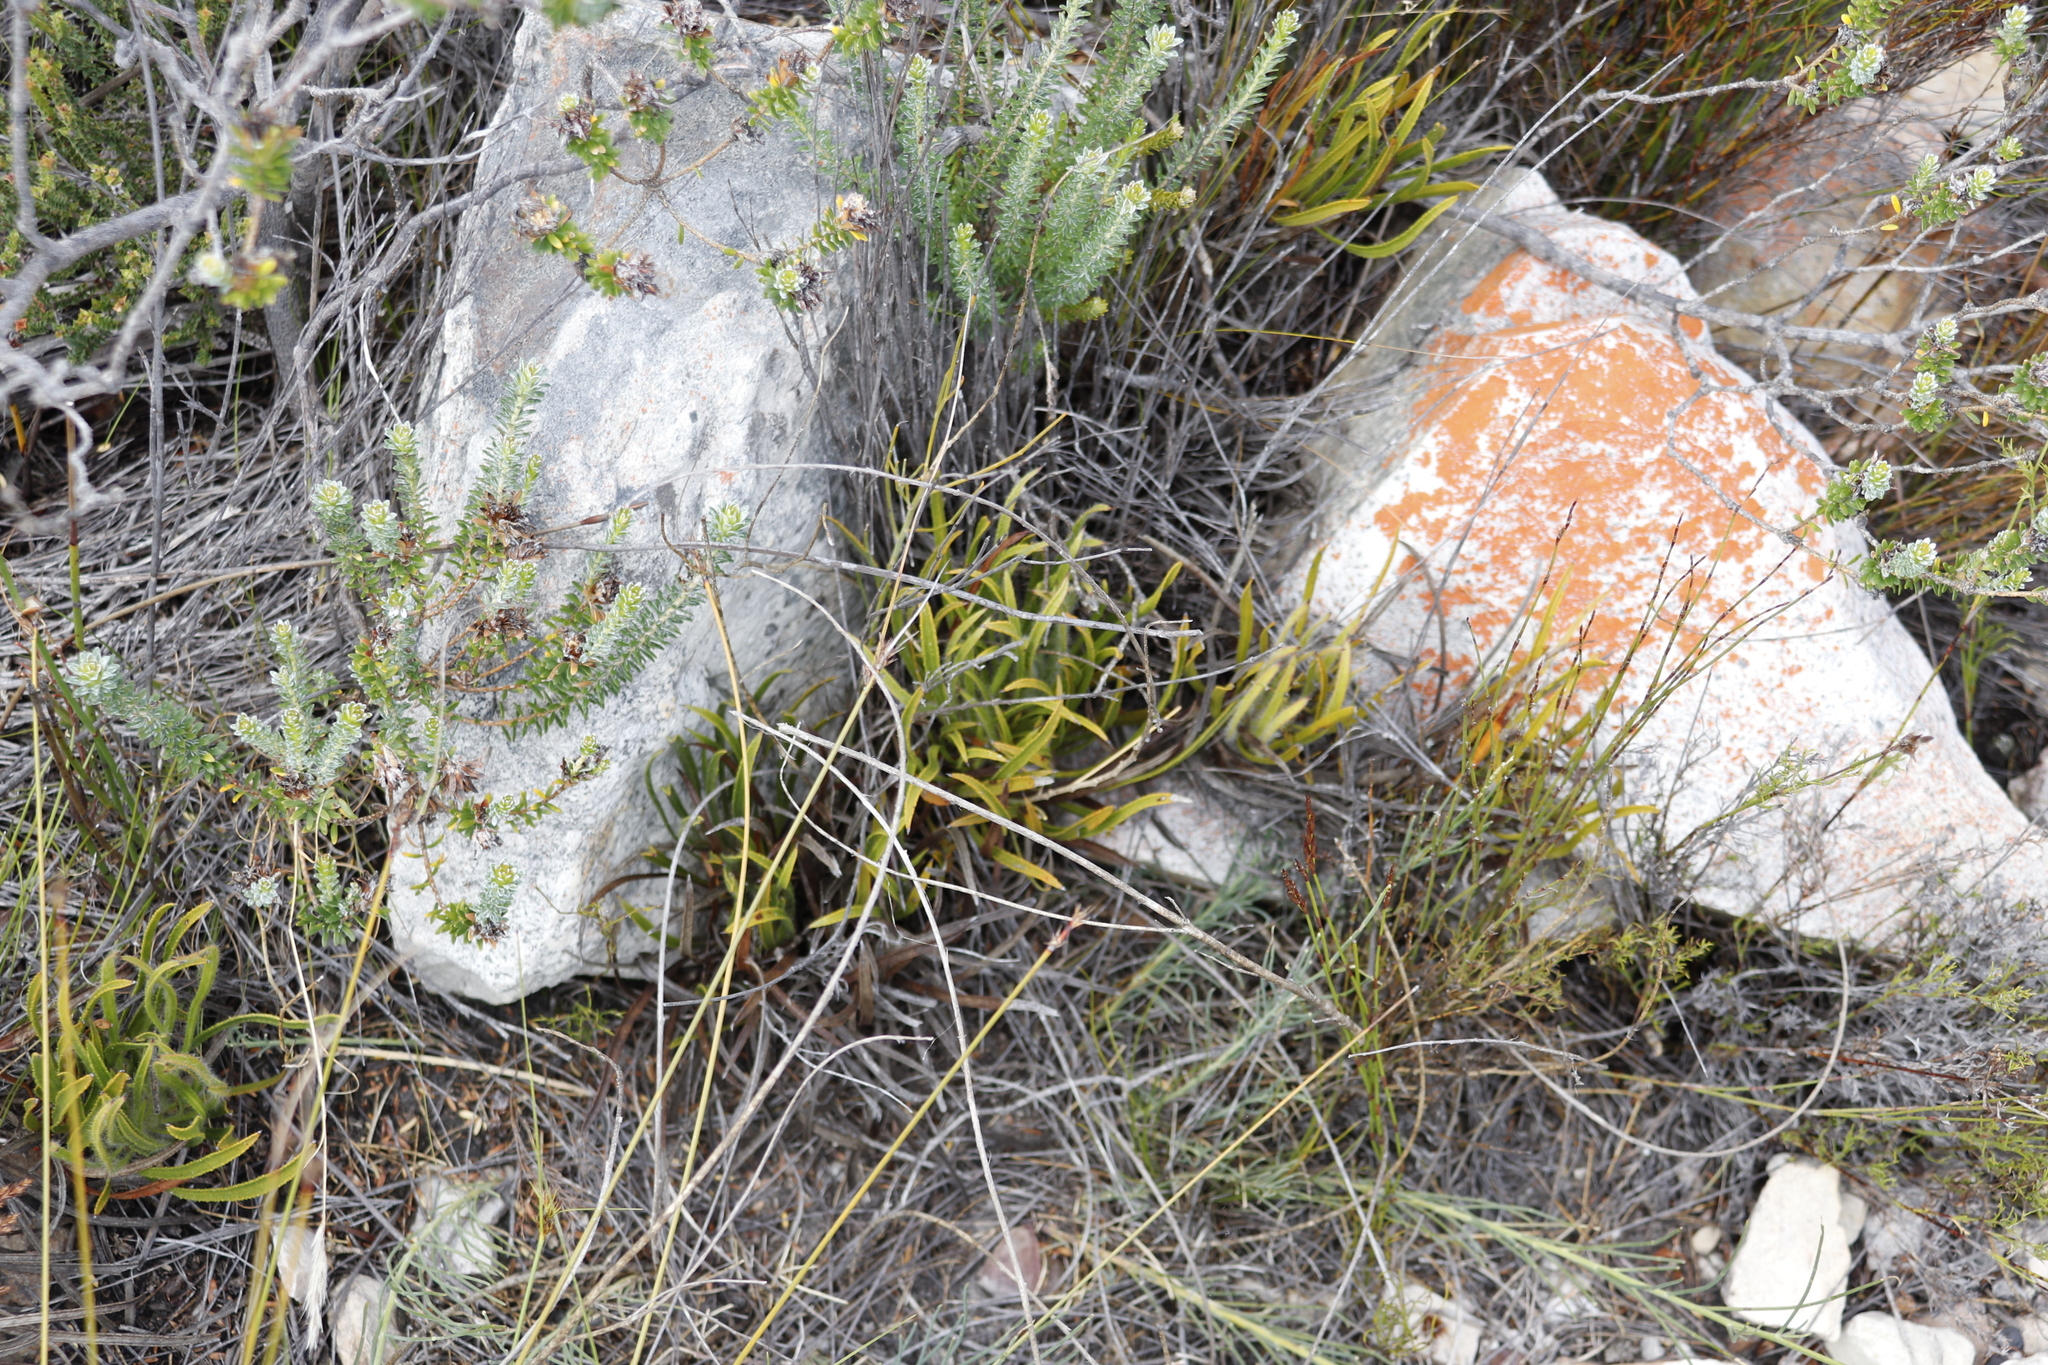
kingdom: Plantae
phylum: Tracheophyta
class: Magnoliopsida
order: Proteales
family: Proteaceae
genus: Protea
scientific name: Protea denticulata
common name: Tooth-leaf sugarbush
